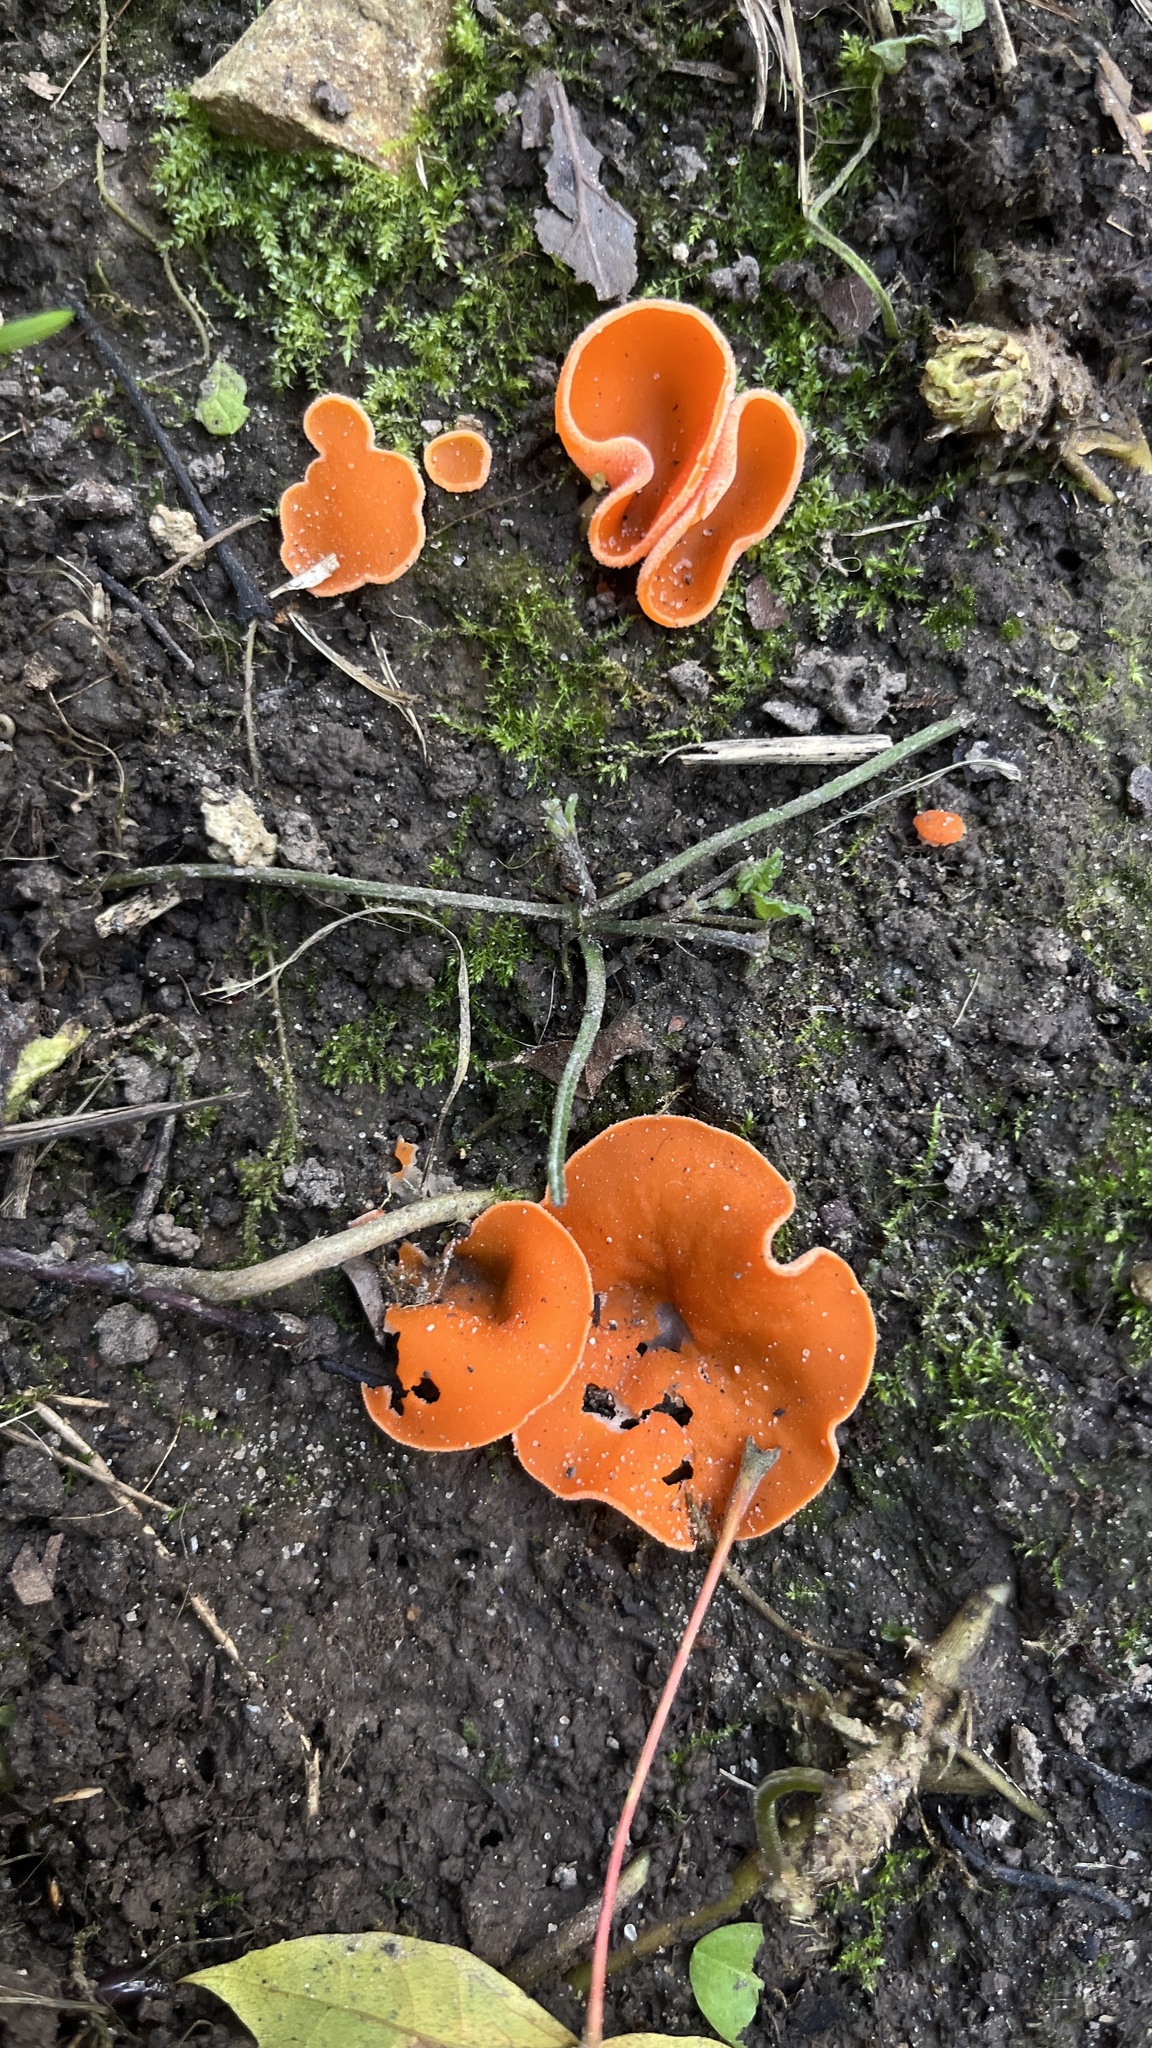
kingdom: Fungi
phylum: Ascomycota
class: Pezizomycetes
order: Pezizales
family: Pyronemataceae
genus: Aleuria
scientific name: Aleuria aurantia
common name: Orange peel fungus
